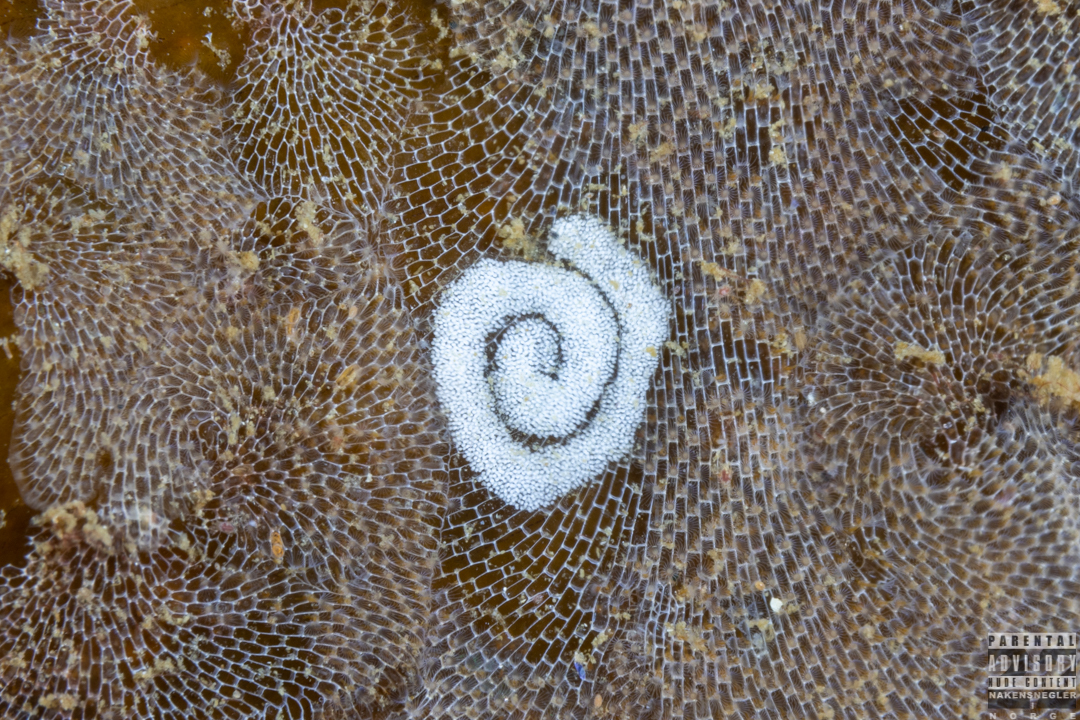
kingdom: Animalia
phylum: Mollusca
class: Gastropoda
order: Nudibranchia
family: Polyceridae
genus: Limacia
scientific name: Limacia clavigera
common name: Orange-clubbed sea slug
